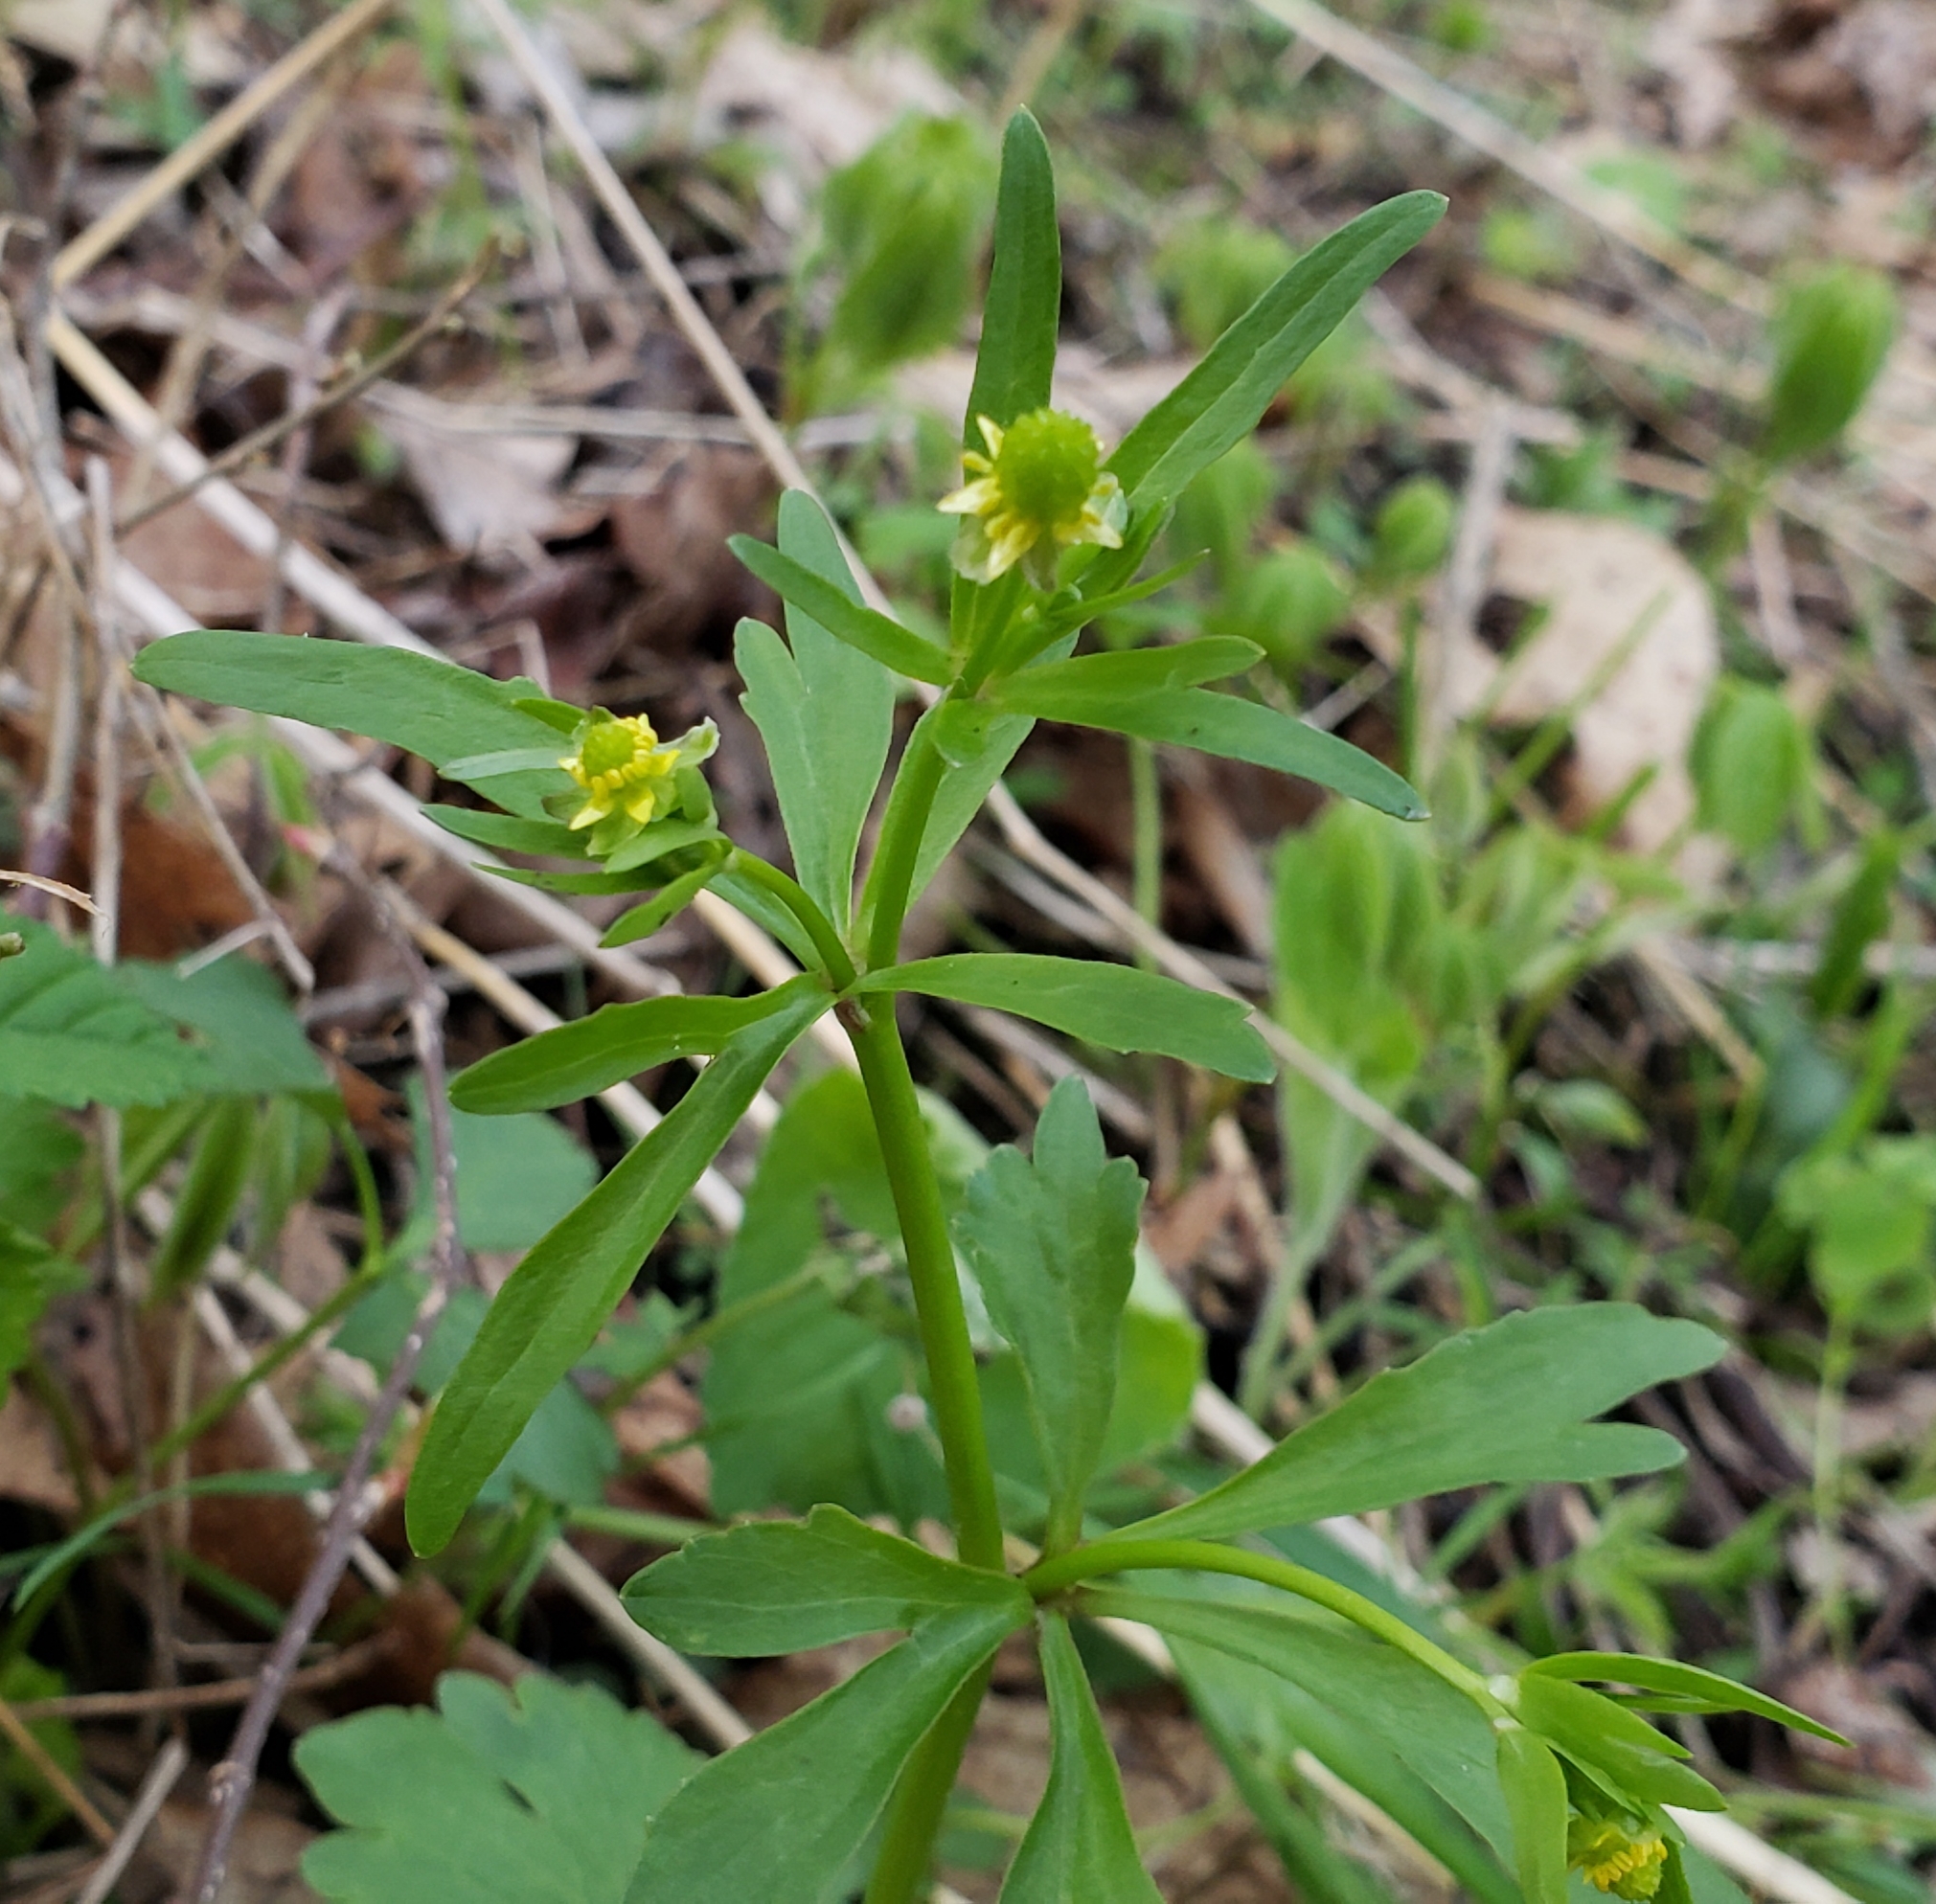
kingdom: Plantae
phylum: Tracheophyta
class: Magnoliopsida
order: Ranunculales
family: Ranunculaceae
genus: Ranunculus
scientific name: Ranunculus abortivus
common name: Early wood buttercup
